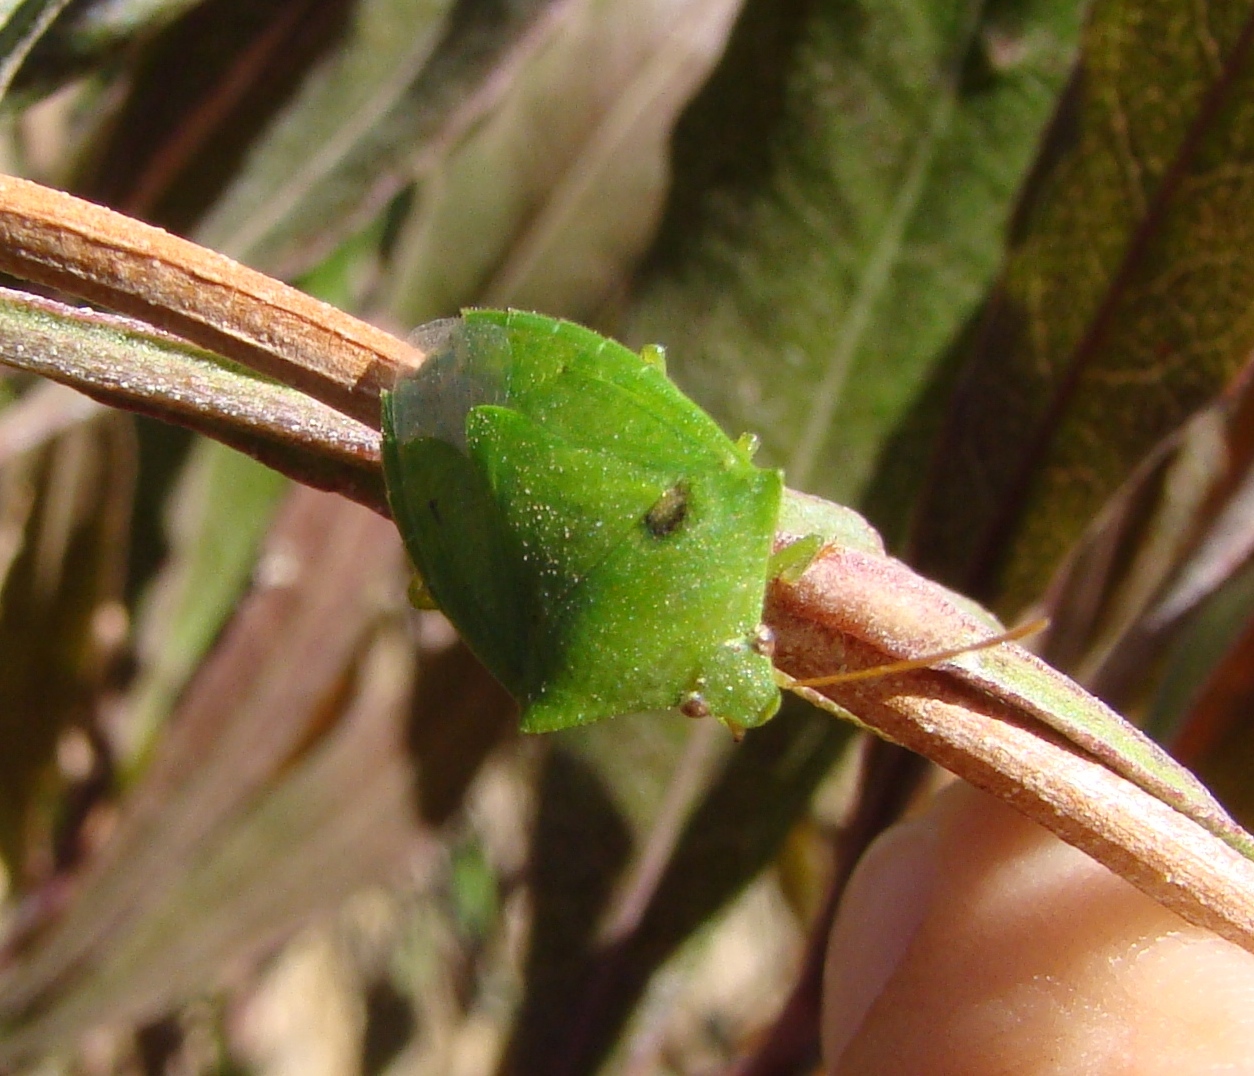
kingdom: Animalia
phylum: Arthropoda
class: Insecta
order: Hemiptera
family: Pentatomidae
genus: Cuspicona
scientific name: Cuspicona simplex
